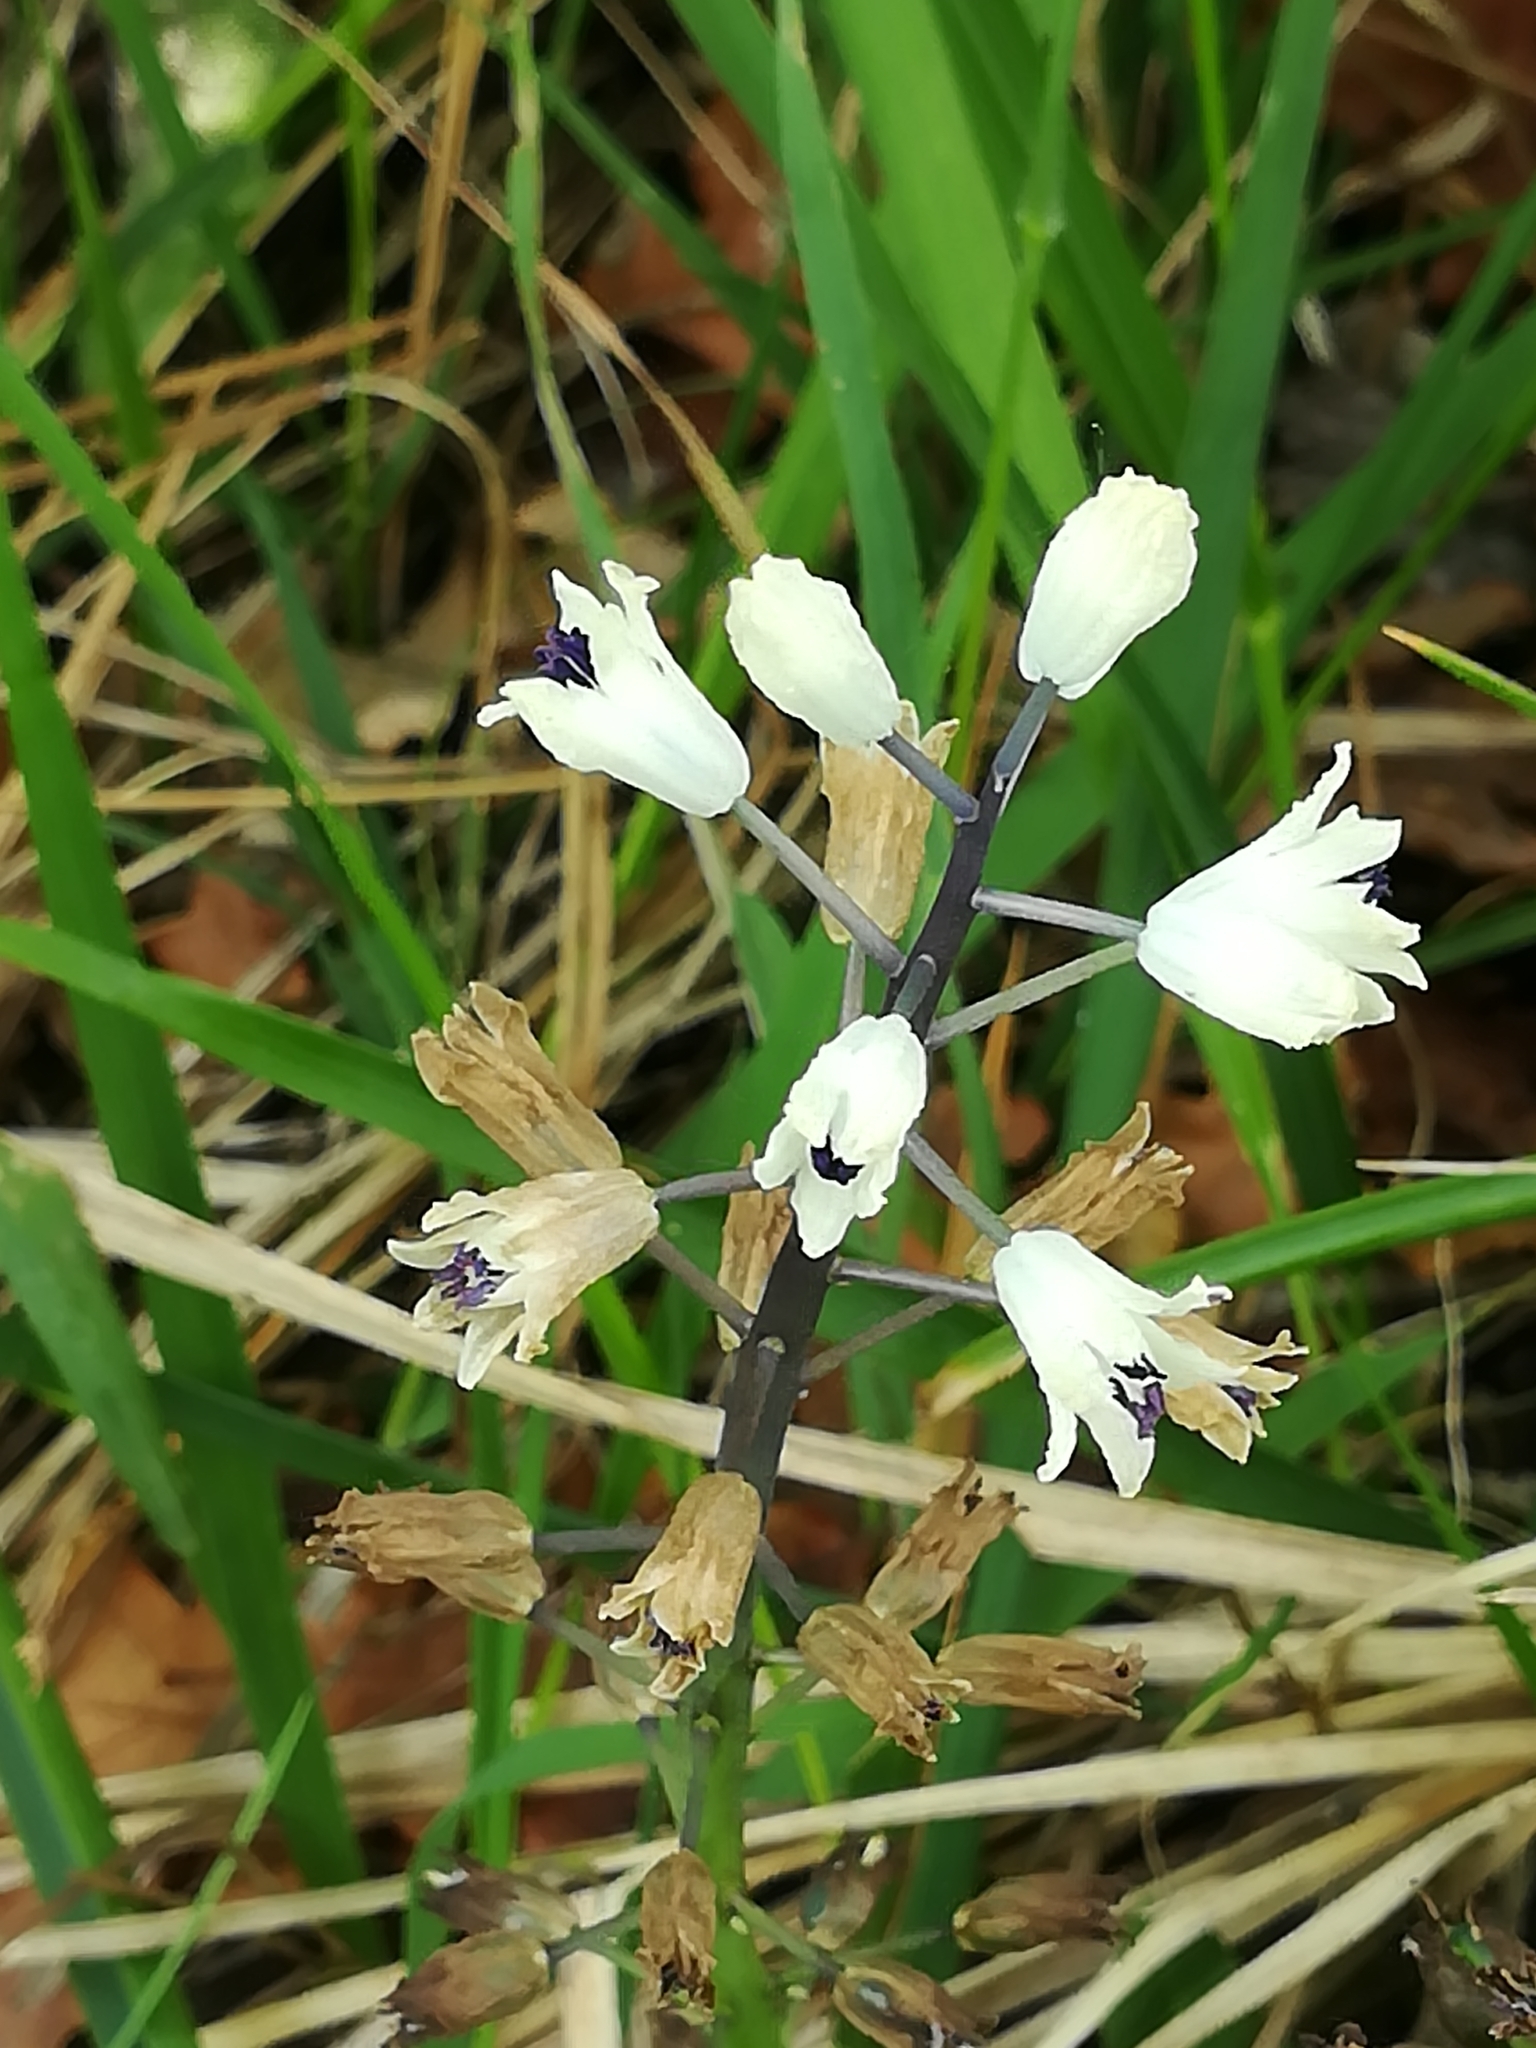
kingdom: Plantae
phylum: Tracheophyta
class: Liliopsida
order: Asparagales
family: Asparagaceae
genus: Bellevalia
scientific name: Bellevalia romana
